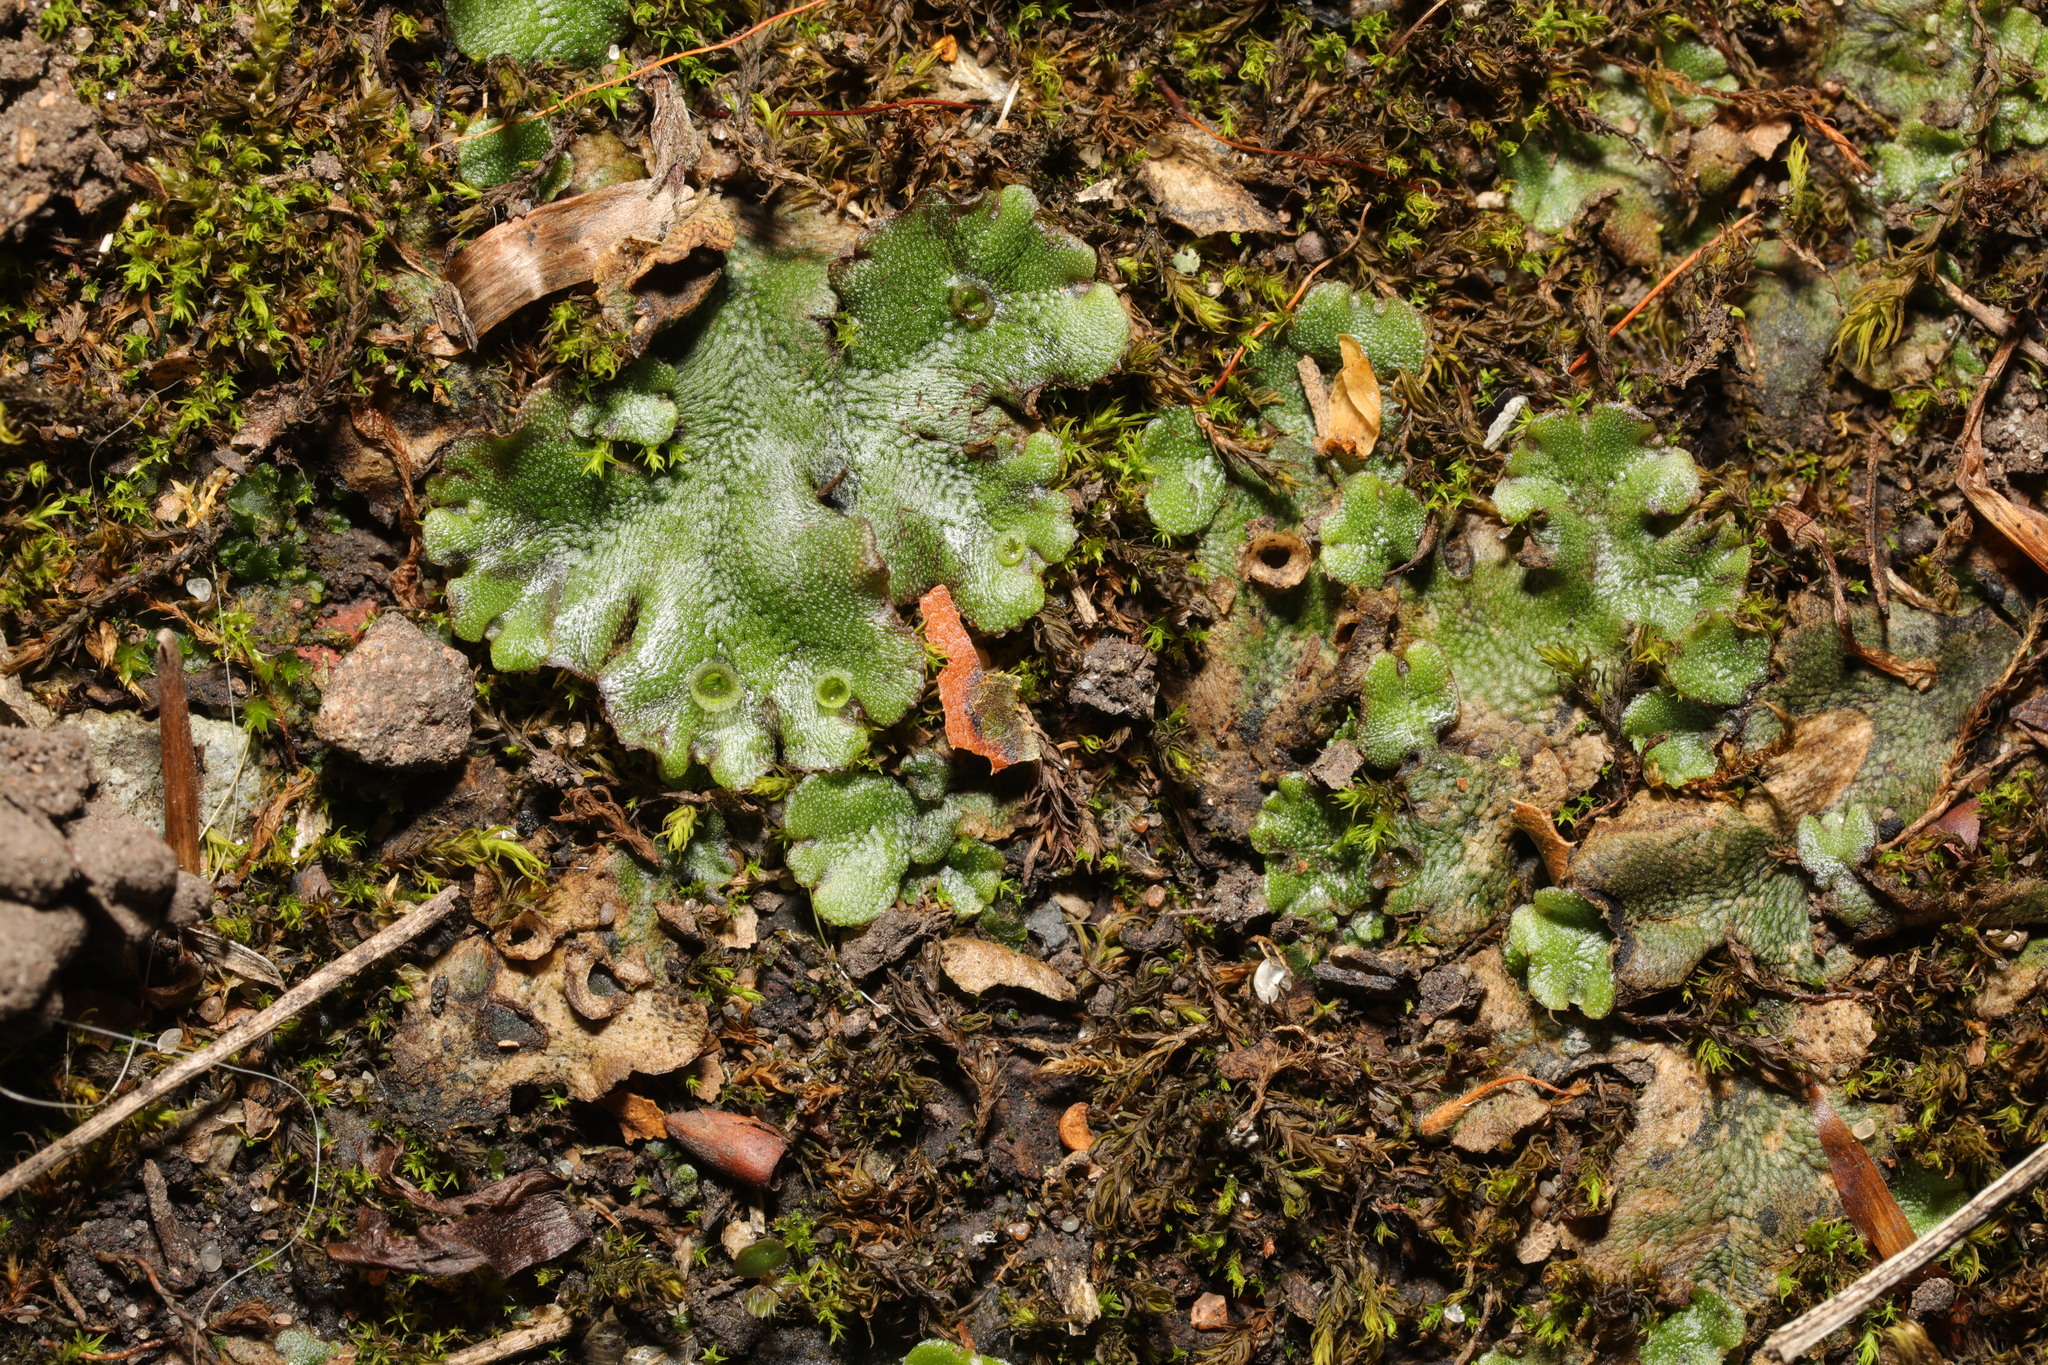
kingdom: Plantae
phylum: Marchantiophyta
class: Marchantiopsida
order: Marchantiales
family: Marchantiaceae
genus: Marchantia
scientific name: Marchantia polymorpha
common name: Common liverwort
